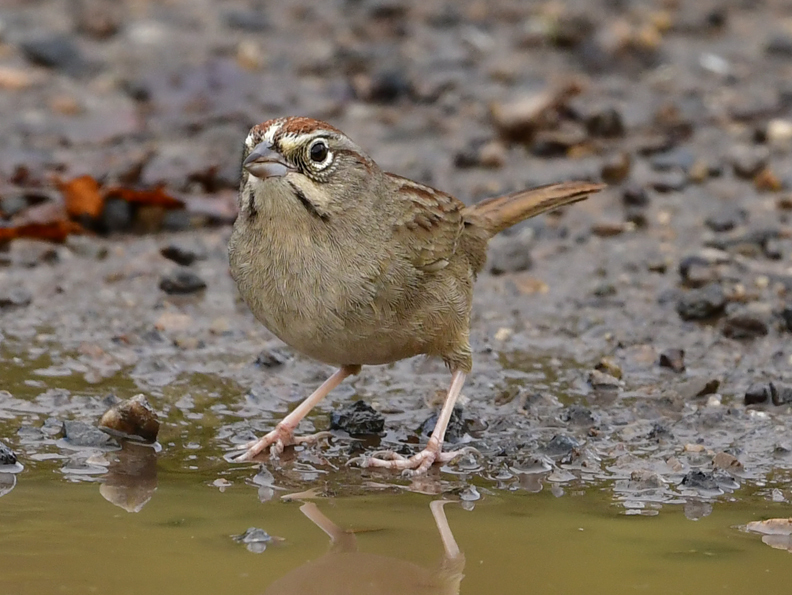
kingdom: Animalia
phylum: Chordata
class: Aves
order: Passeriformes
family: Passerellidae
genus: Aimophila
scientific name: Aimophila ruficeps
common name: Rufous-crowned sparrow
